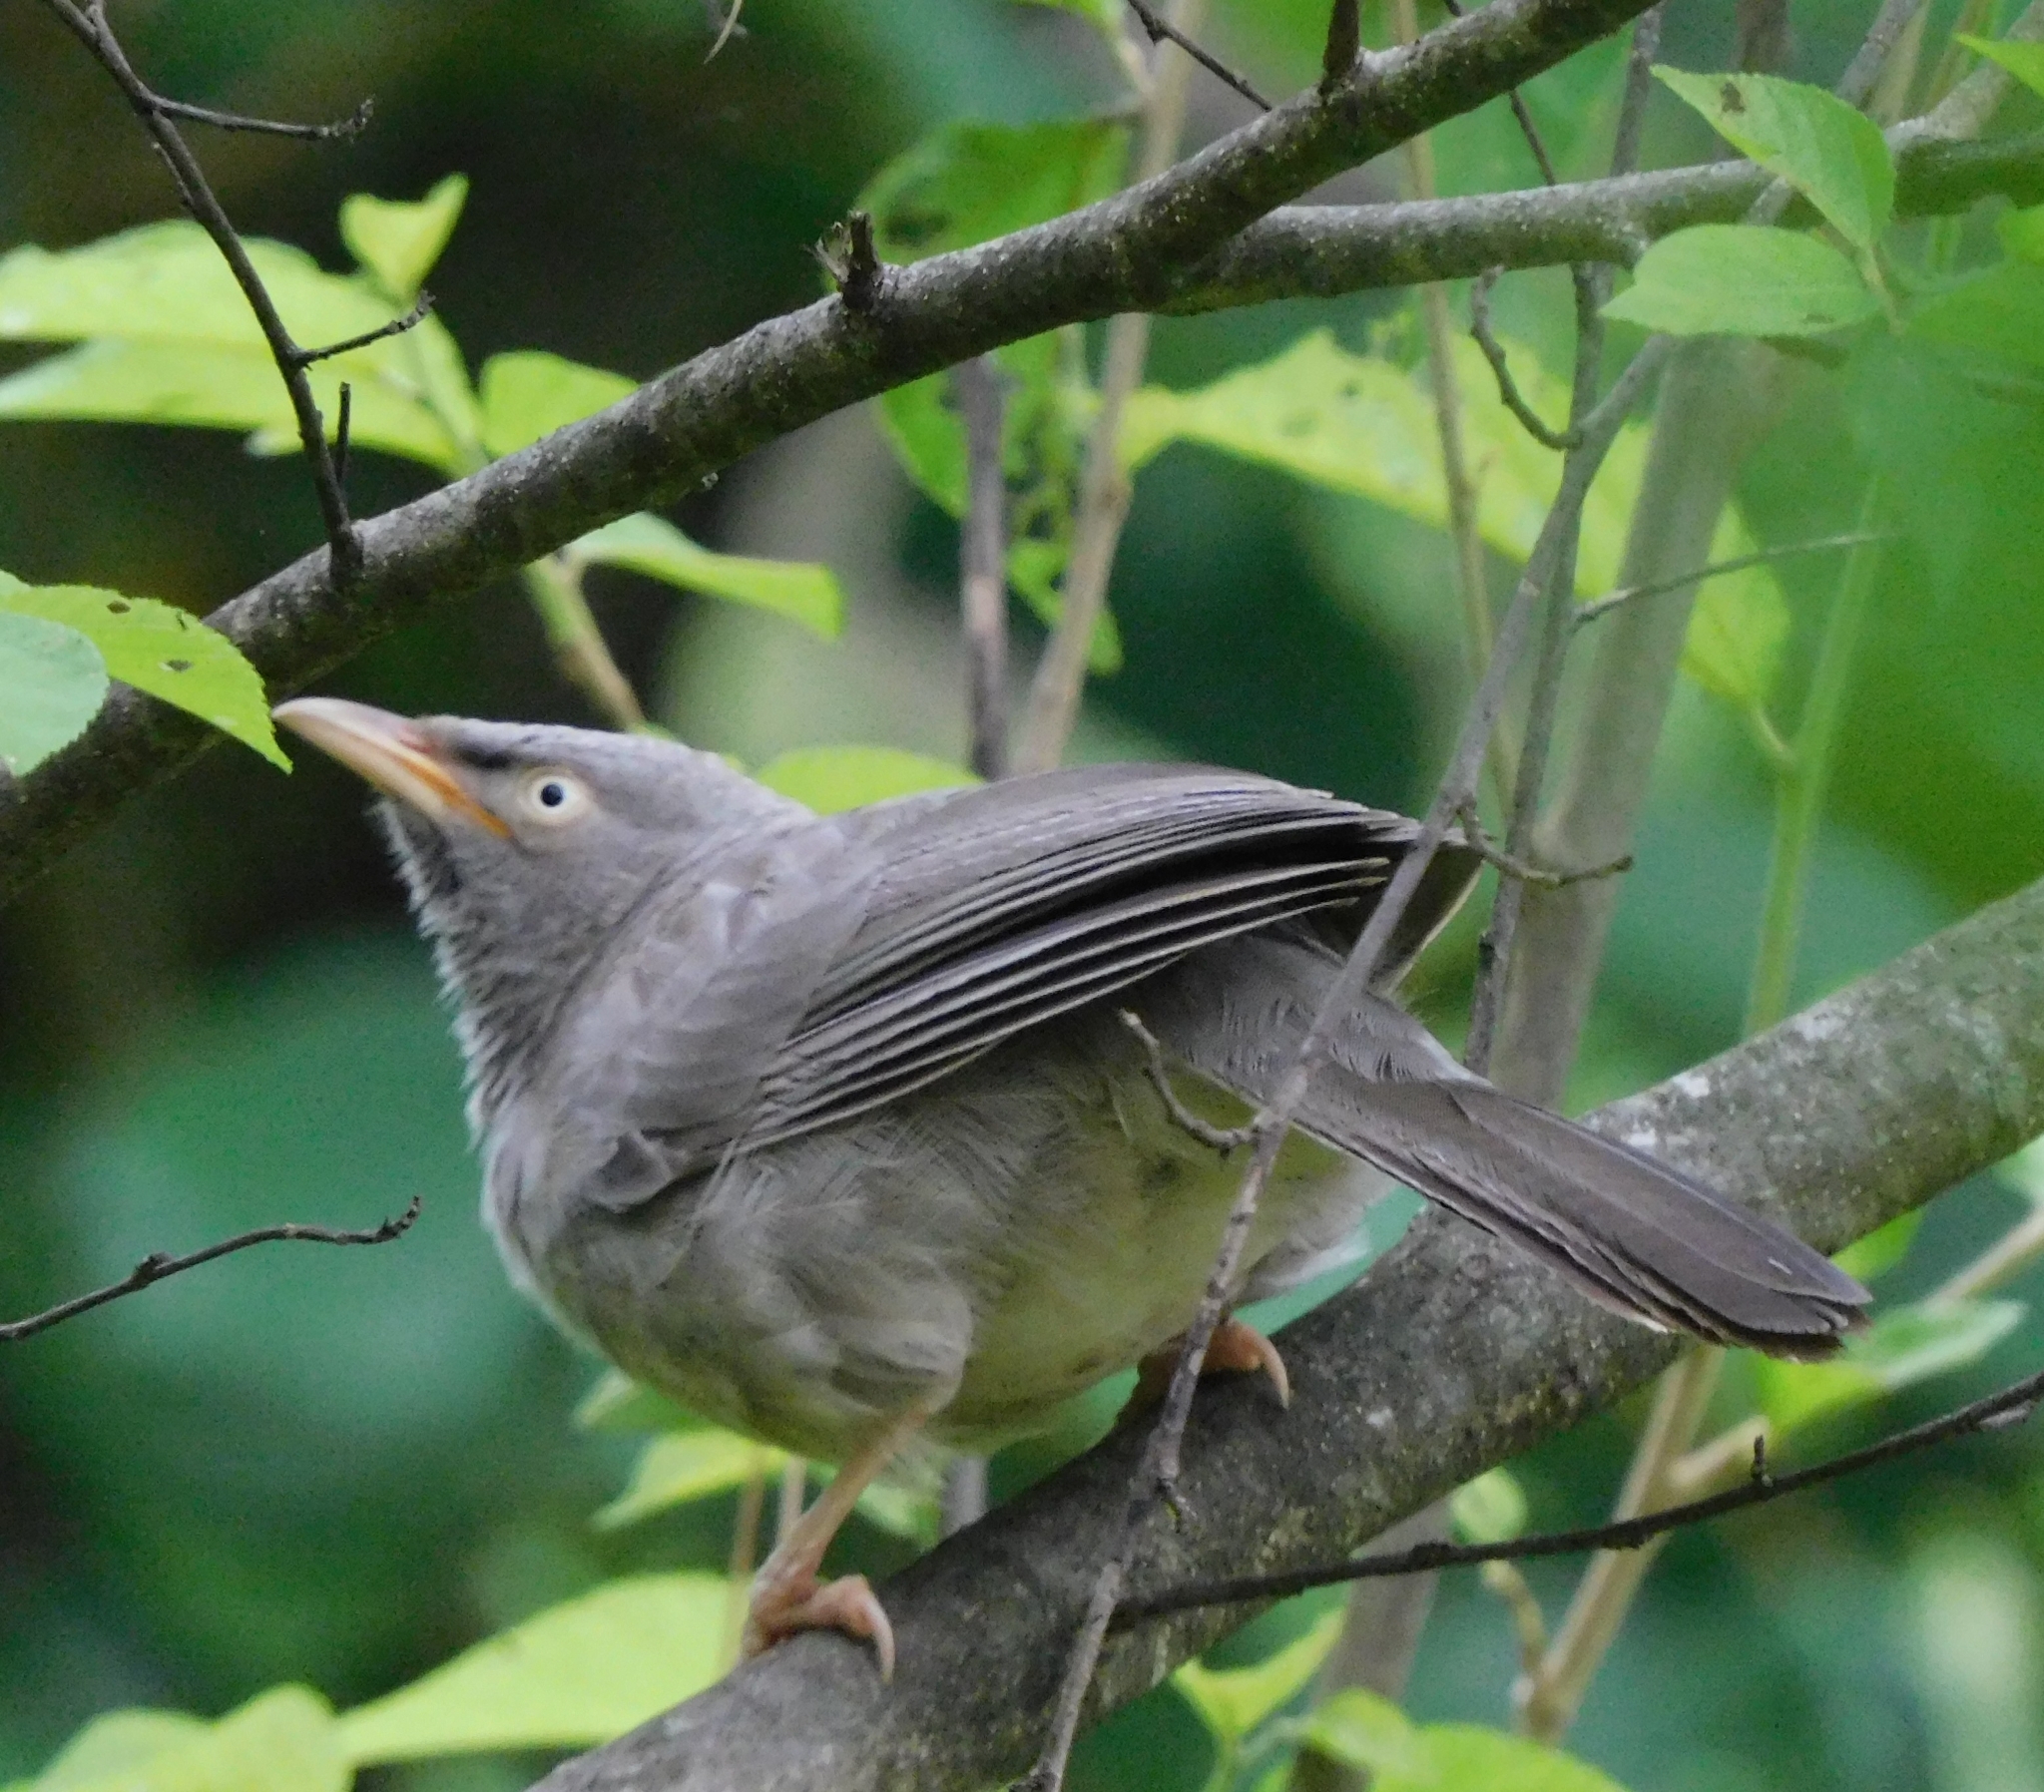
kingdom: Animalia
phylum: Chordata
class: Aves
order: Passeriformes
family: Leiothrichidae
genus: Turdoides
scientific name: Turdoides striata
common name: Jungle babbler
